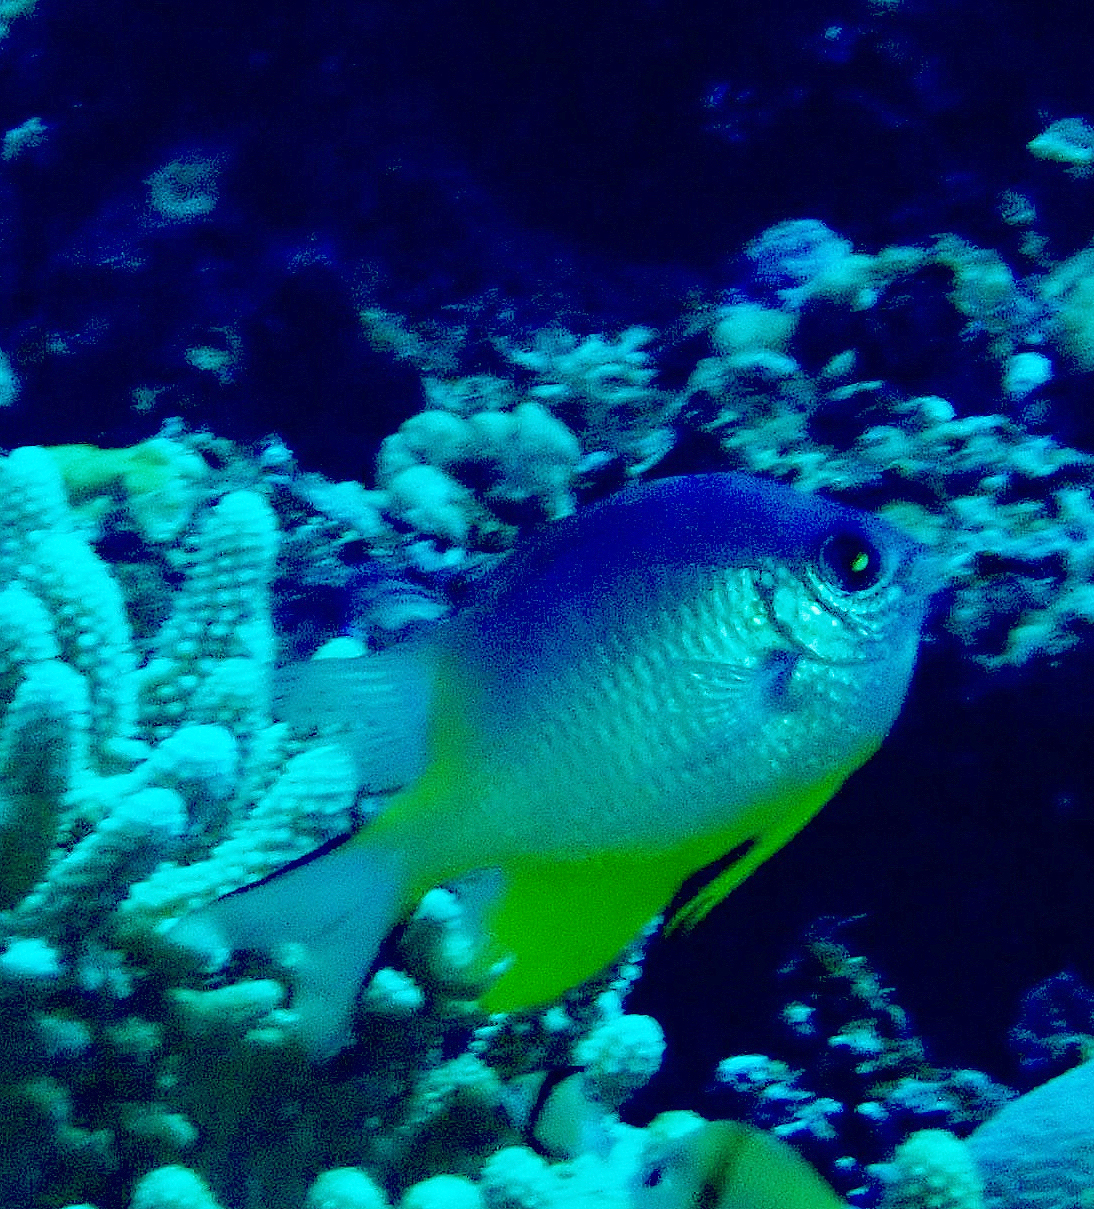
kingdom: Animalia
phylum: Chordata
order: Perciformes
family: Pomacentridae
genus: Amblyglyphidodon
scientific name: Amblyglyphidodon orbicularis
